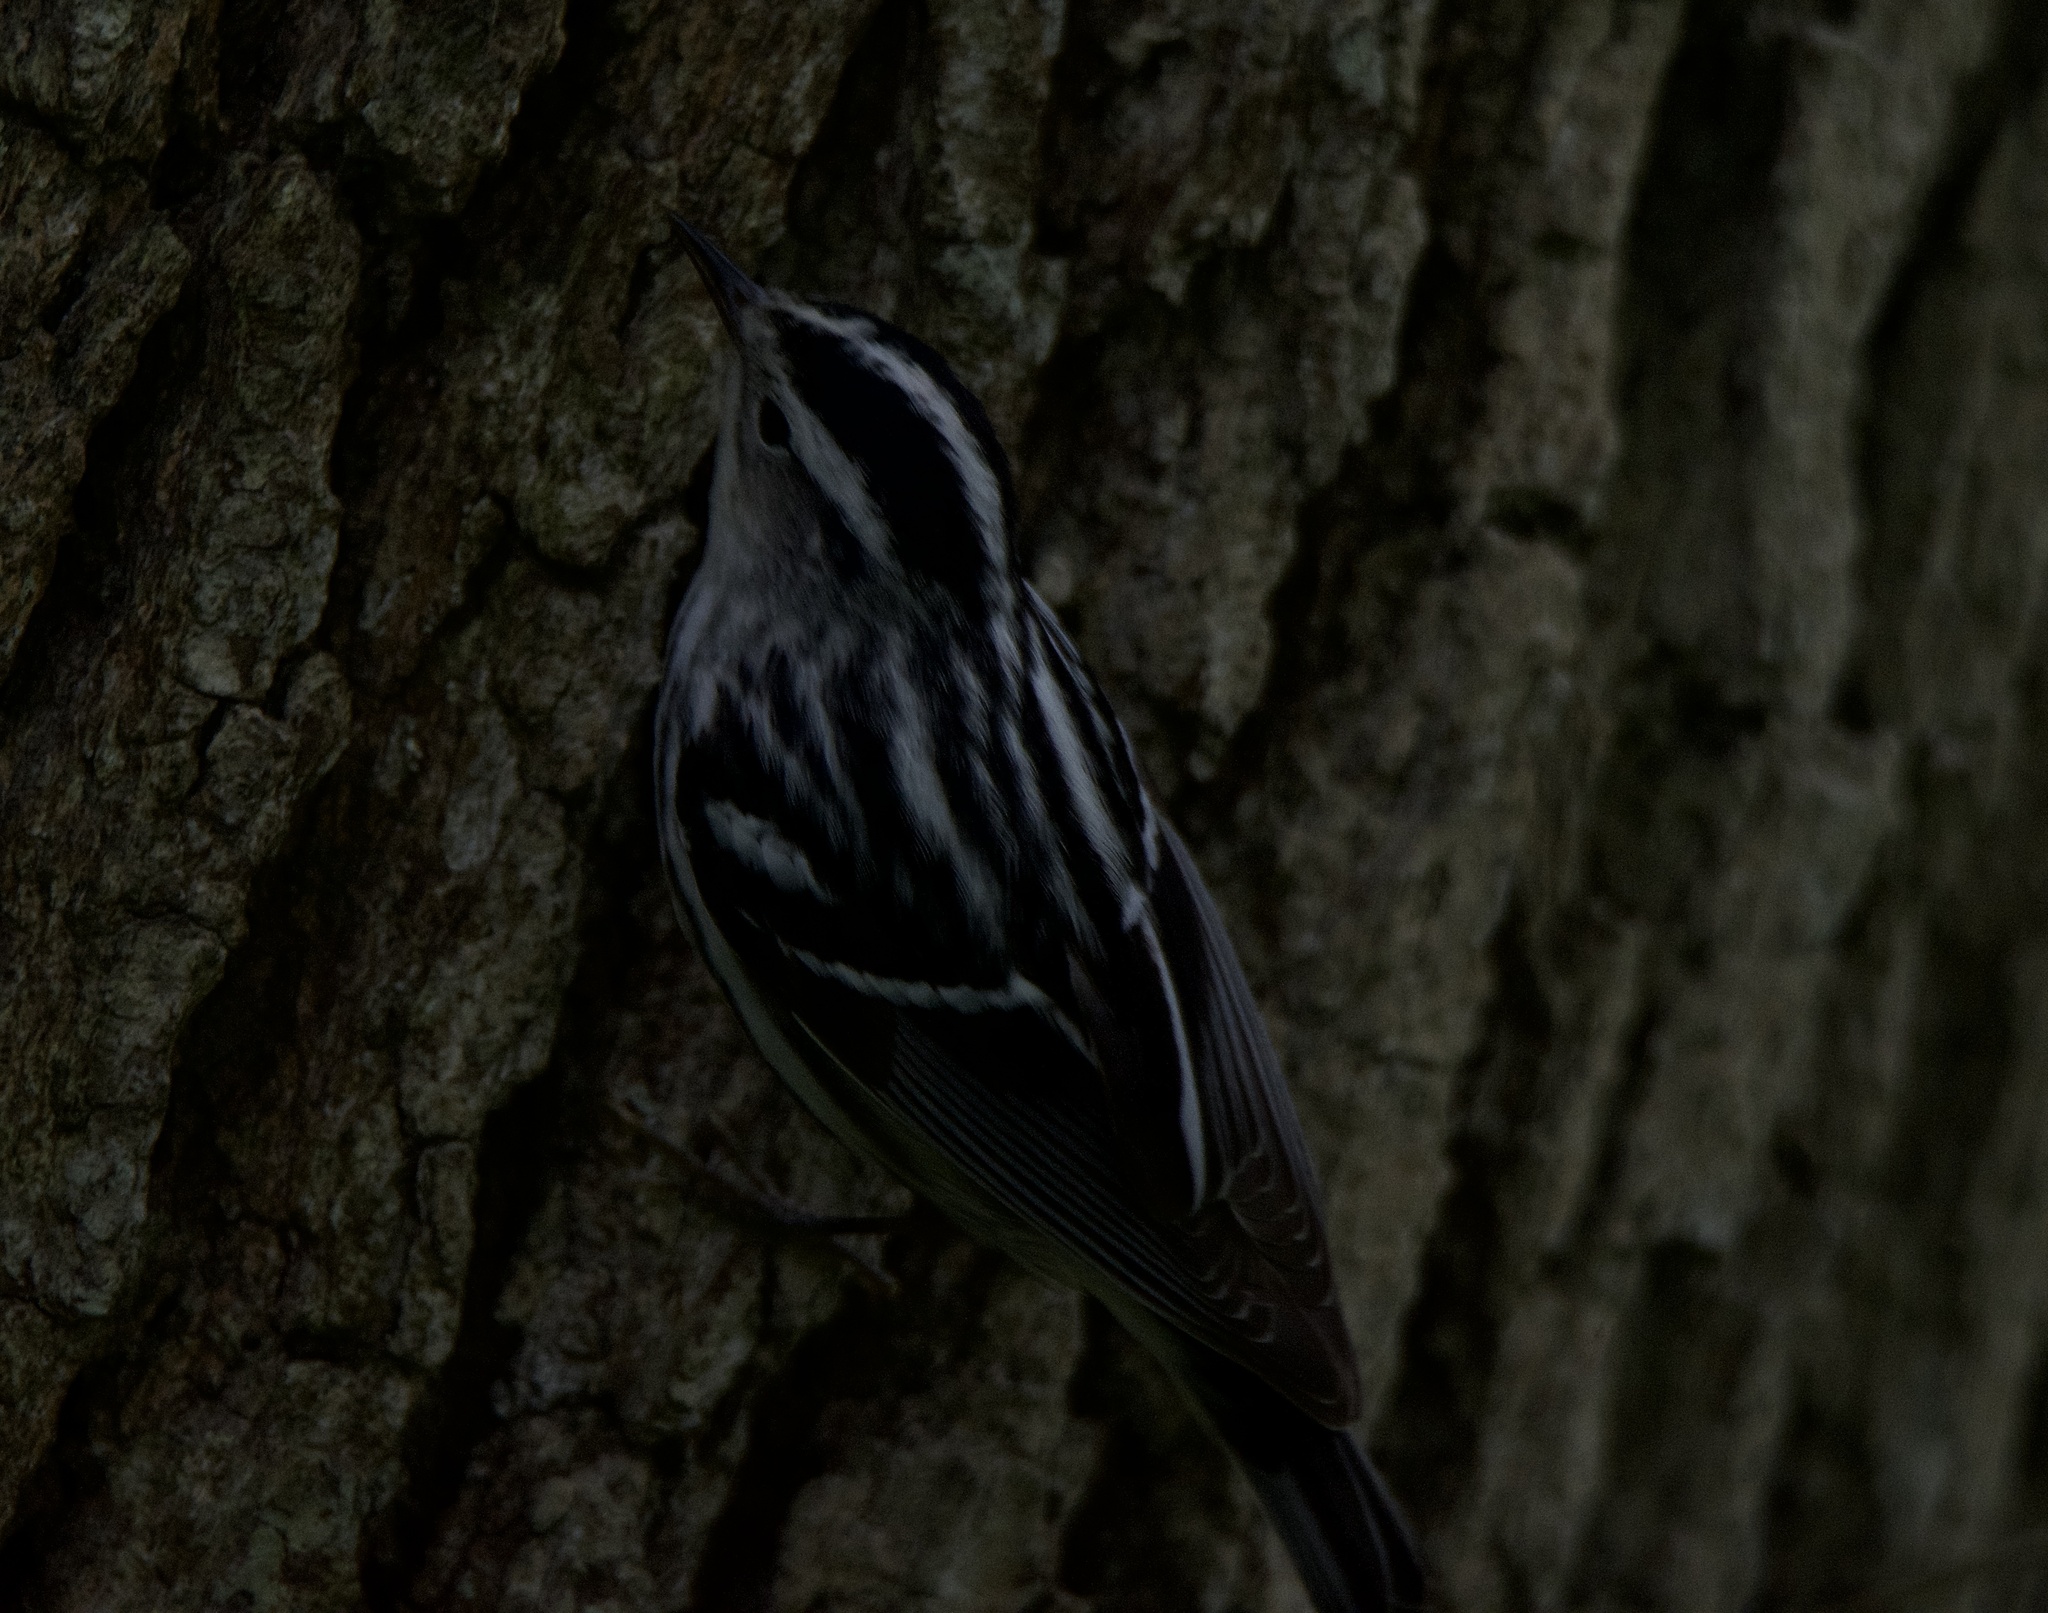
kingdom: Animalia
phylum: Chordata
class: Aves
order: Passeriformes
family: Parulidae
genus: Mniotilta
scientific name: Mniotilta varia
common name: Black-and-white warbler
